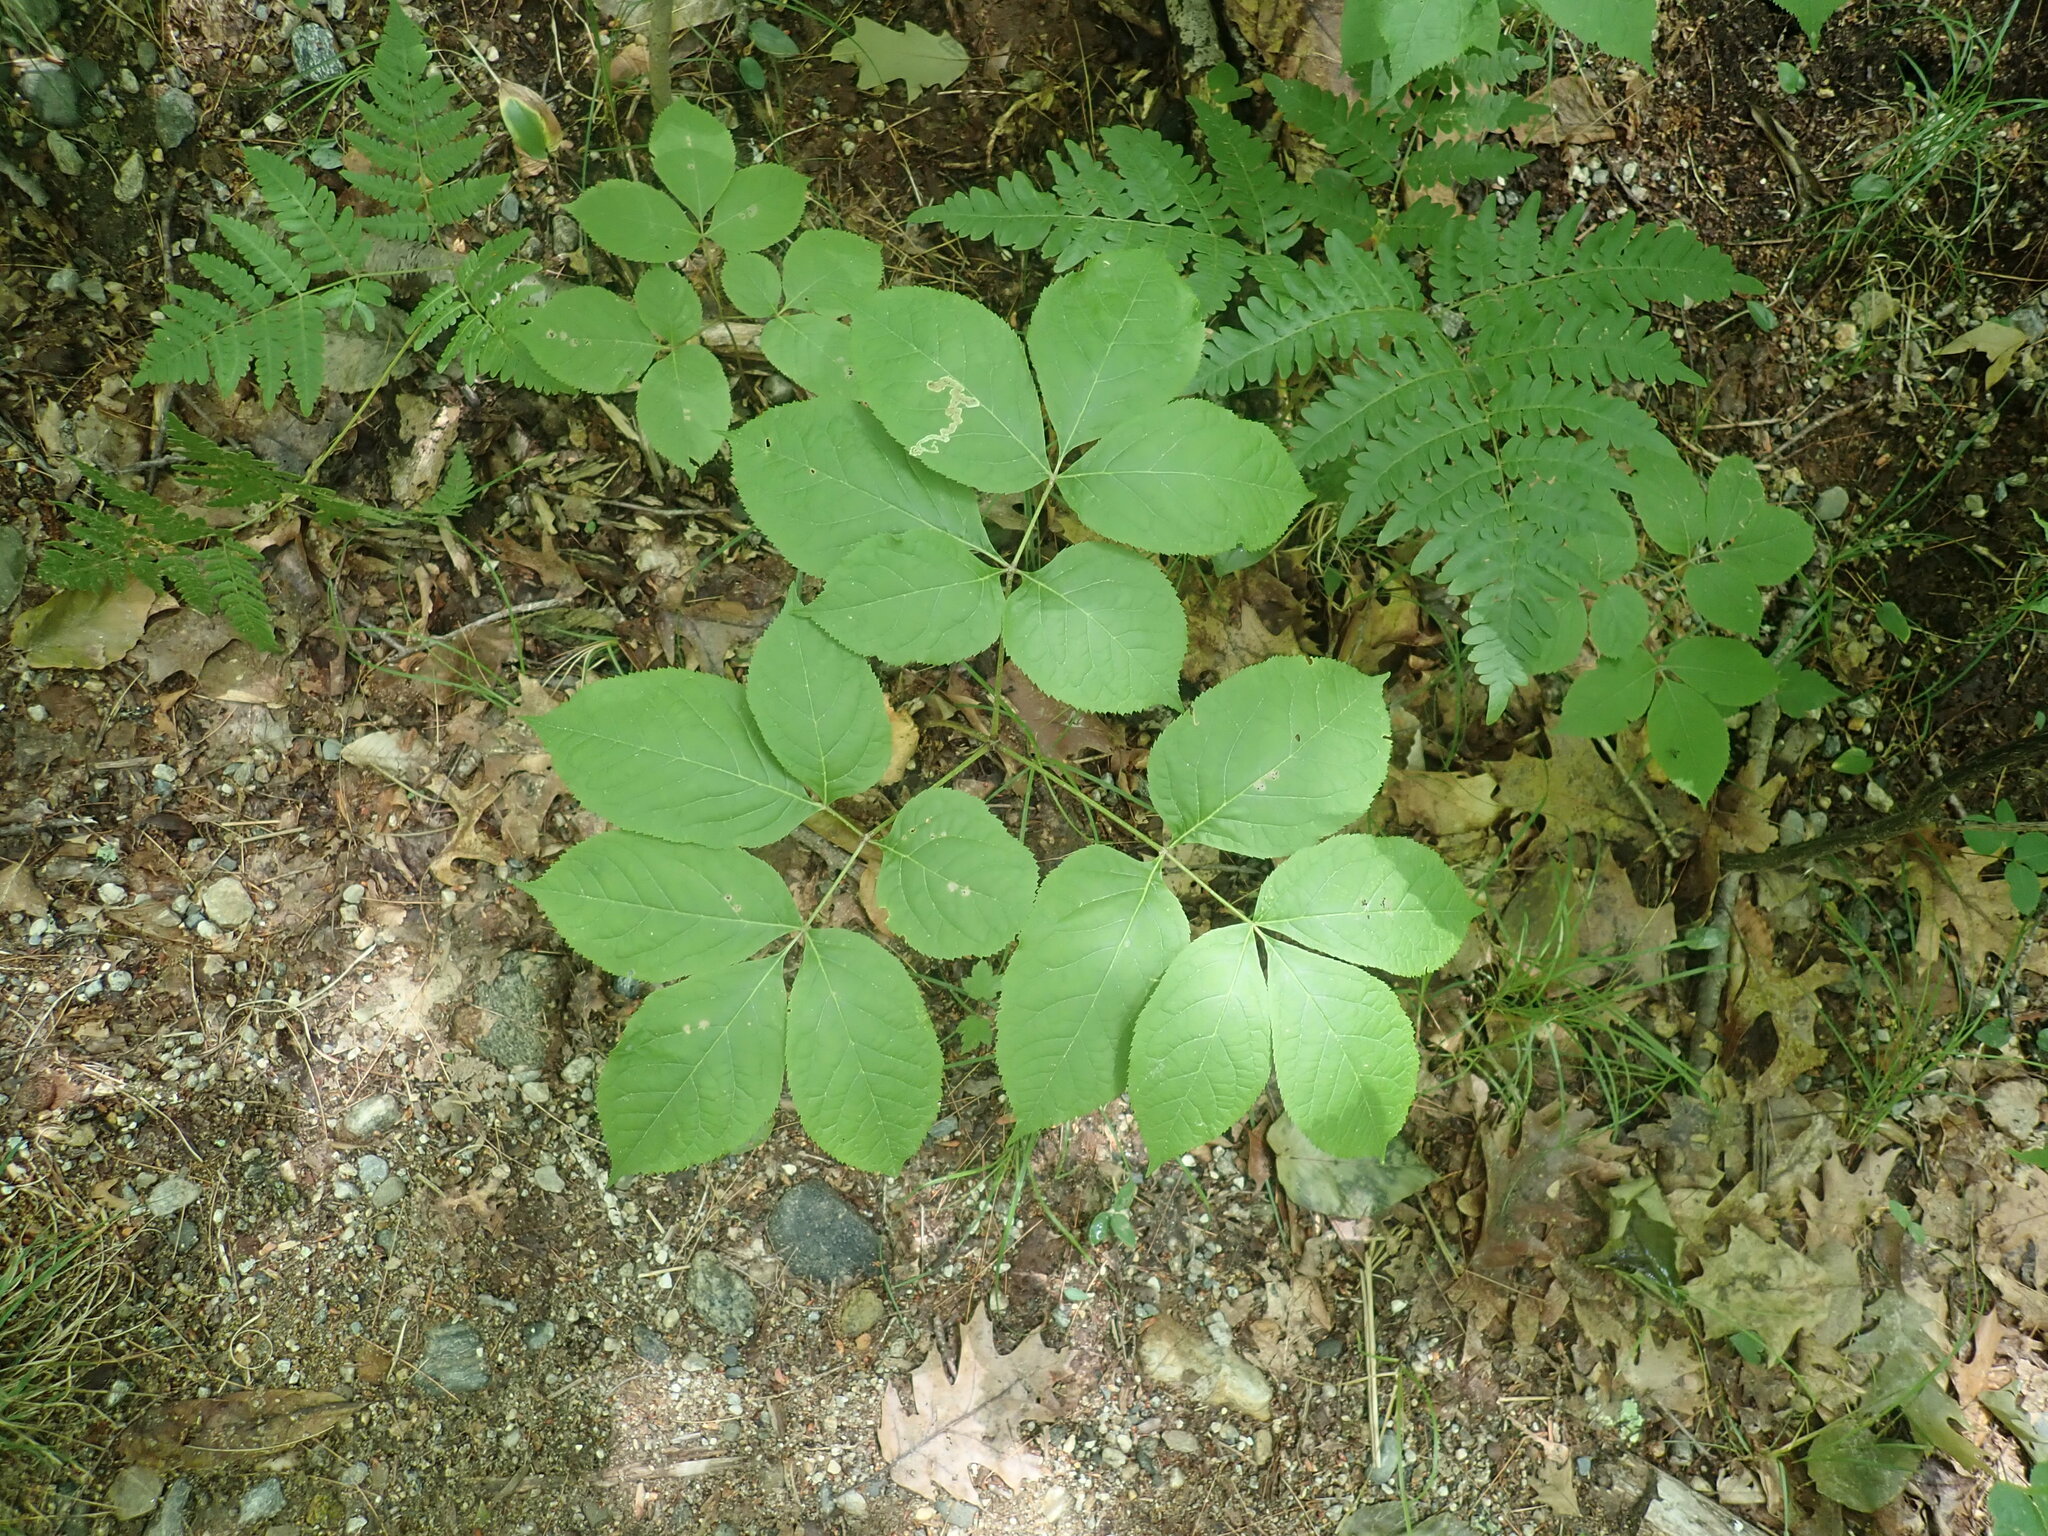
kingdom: Plantae
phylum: Tracheophyta
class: Magnoliopsida
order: Apiales
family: Araliaceae
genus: Aralia
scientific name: Aralia nudicaulis
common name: Wild sarsaparilla
